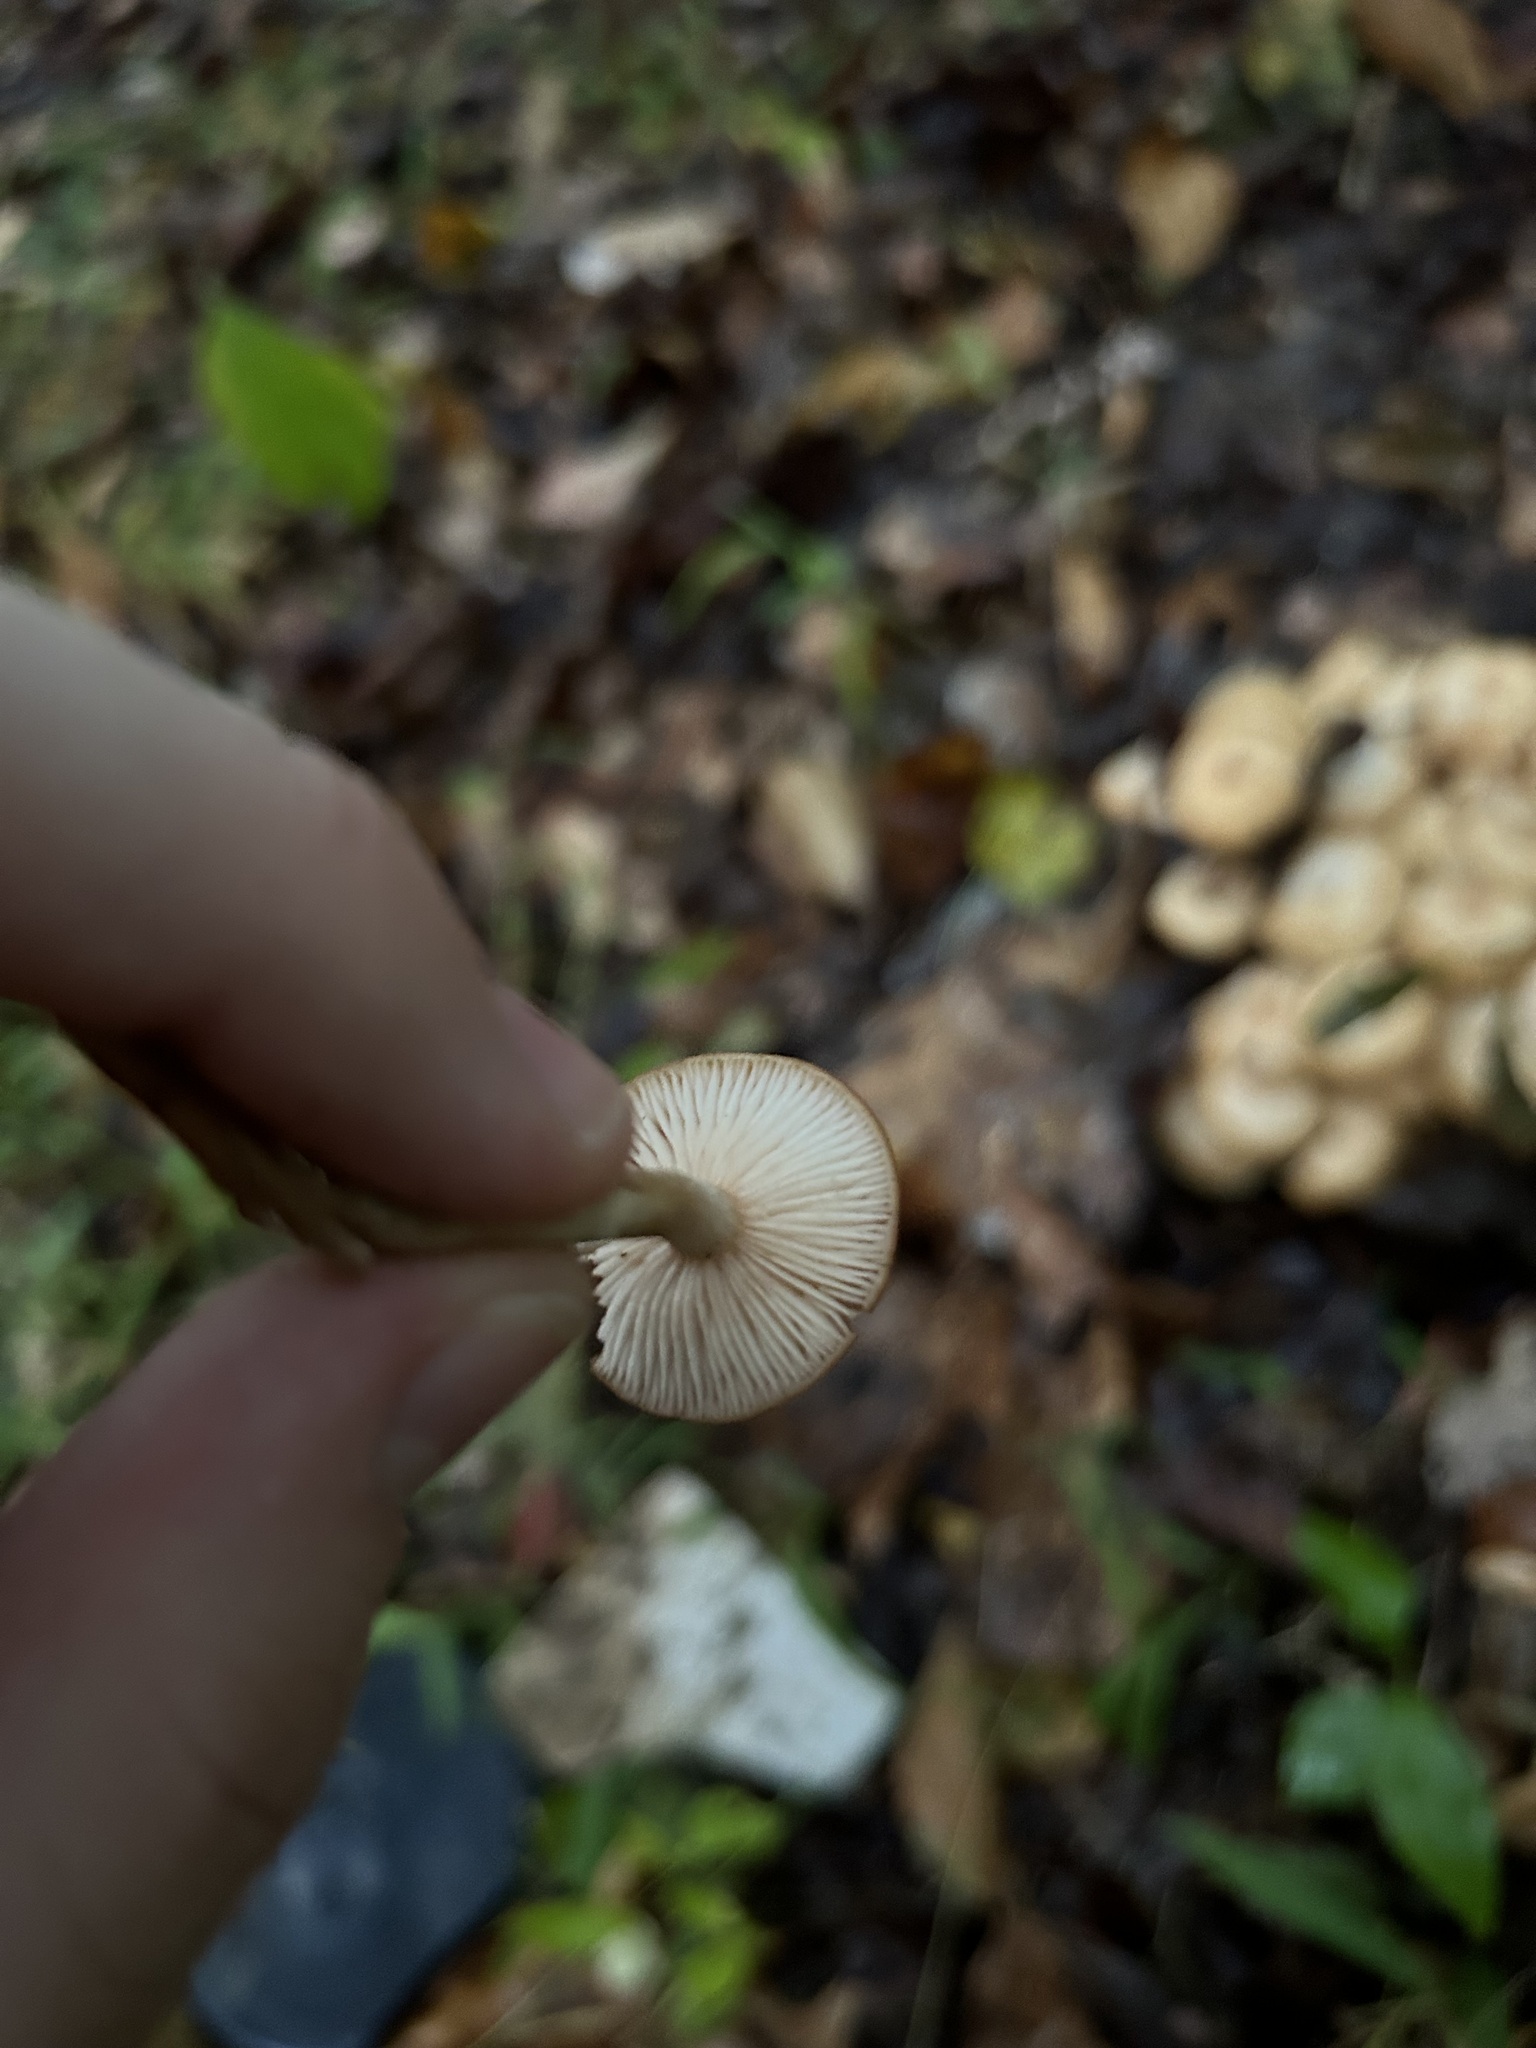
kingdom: Fungi
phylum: Basidiomycota
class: Agaricomycetes
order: Agaricales
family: Physalacriaceae
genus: Desarmillaria
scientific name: Desarmillaria caespitosa
